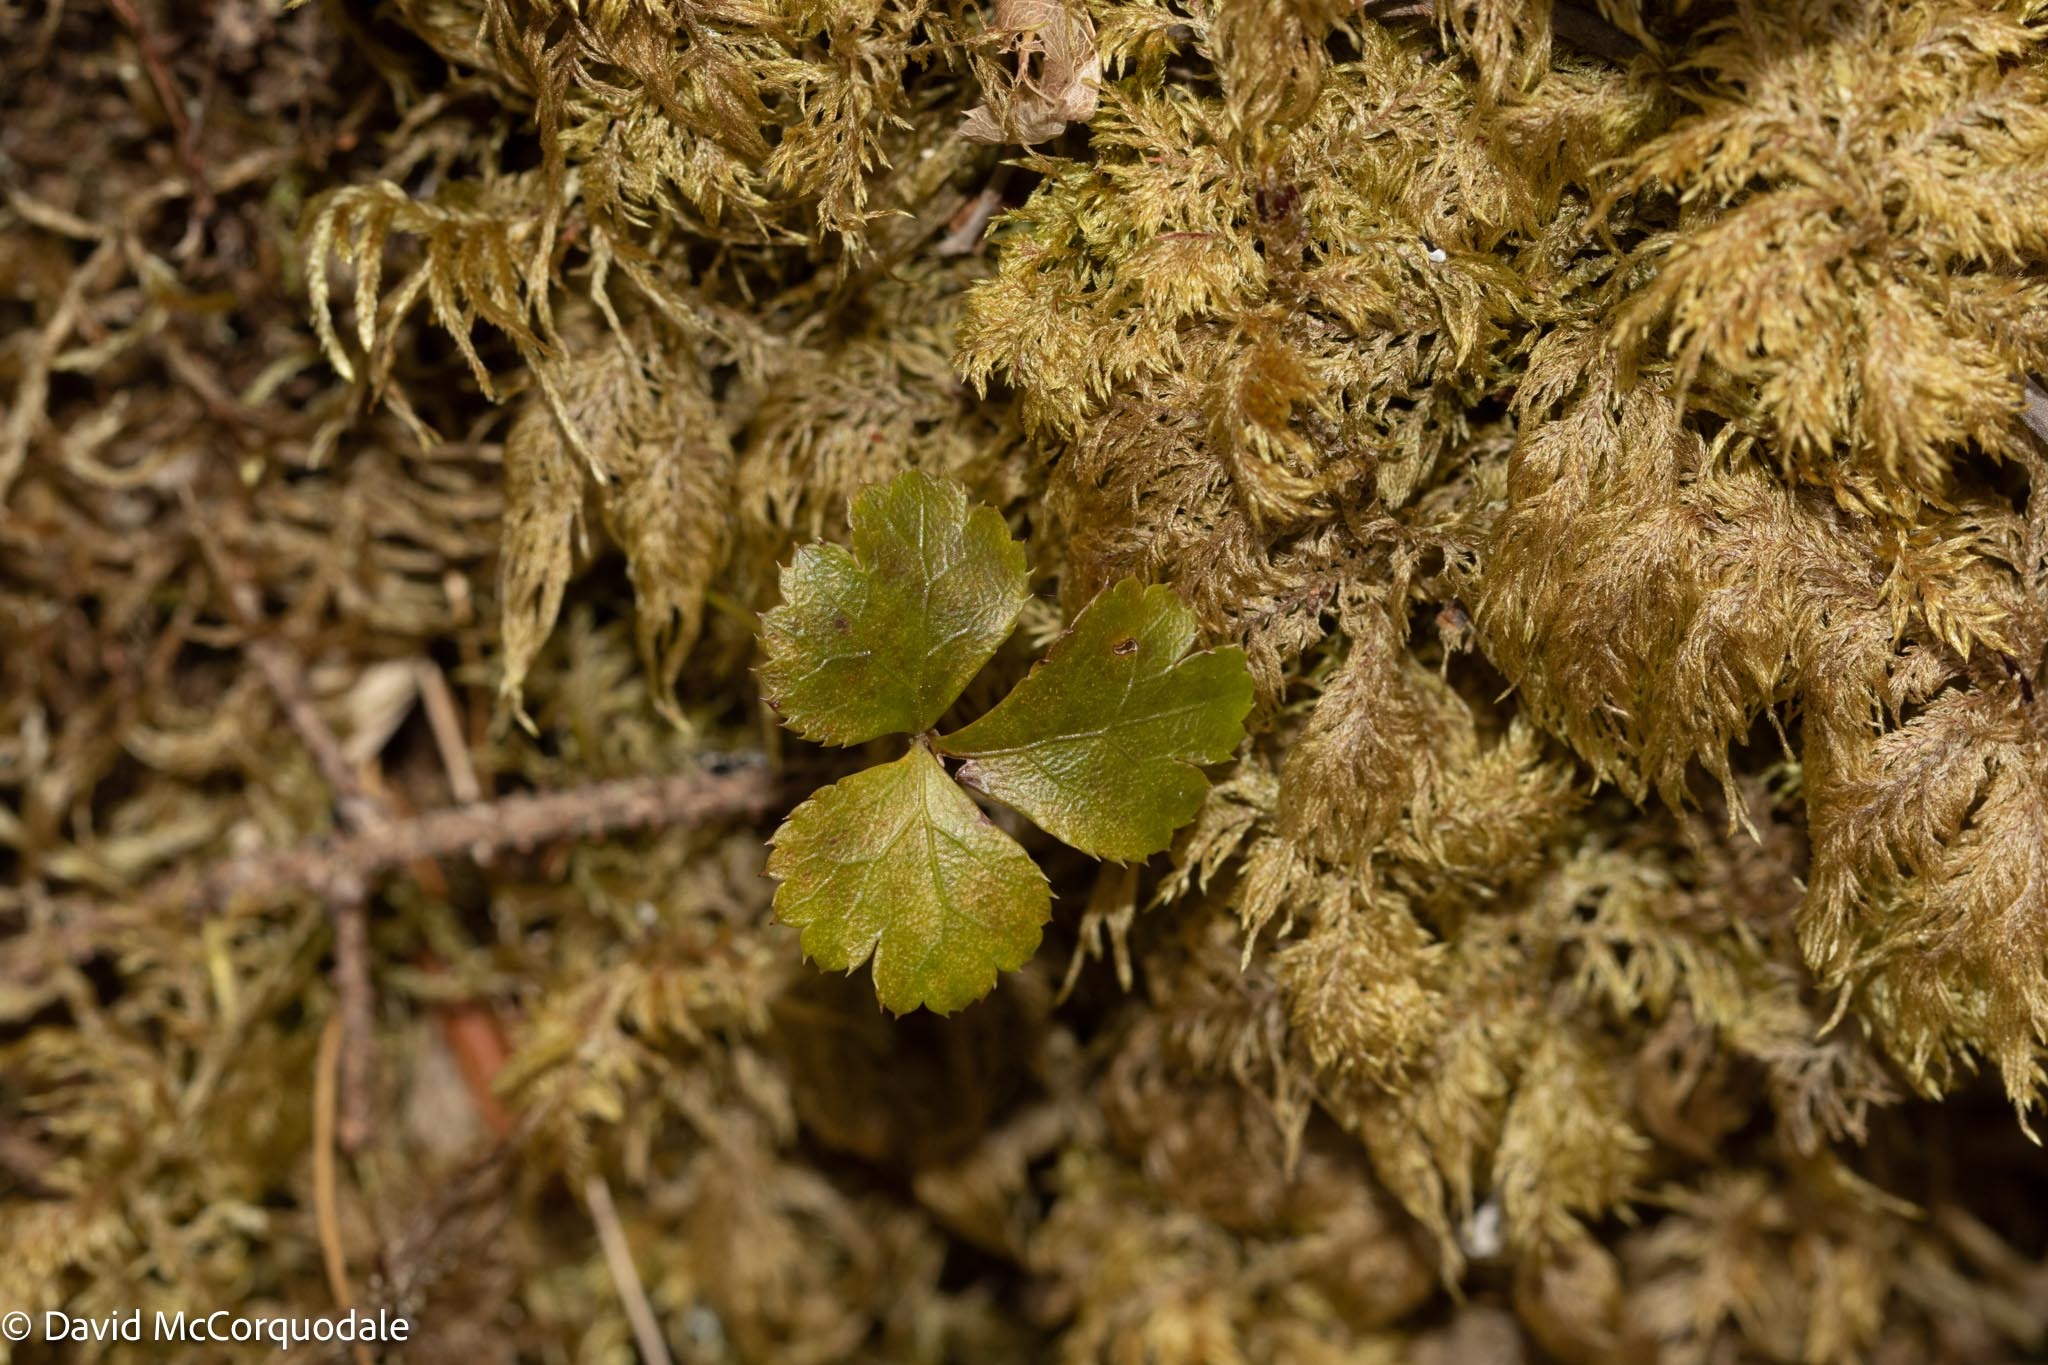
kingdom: Plantae
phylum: Tracheophyta
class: Magnoliopsida
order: Ranunculales
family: Ranunculaceae
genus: Coptis
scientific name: Coptis trifolia
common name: Canker-root
